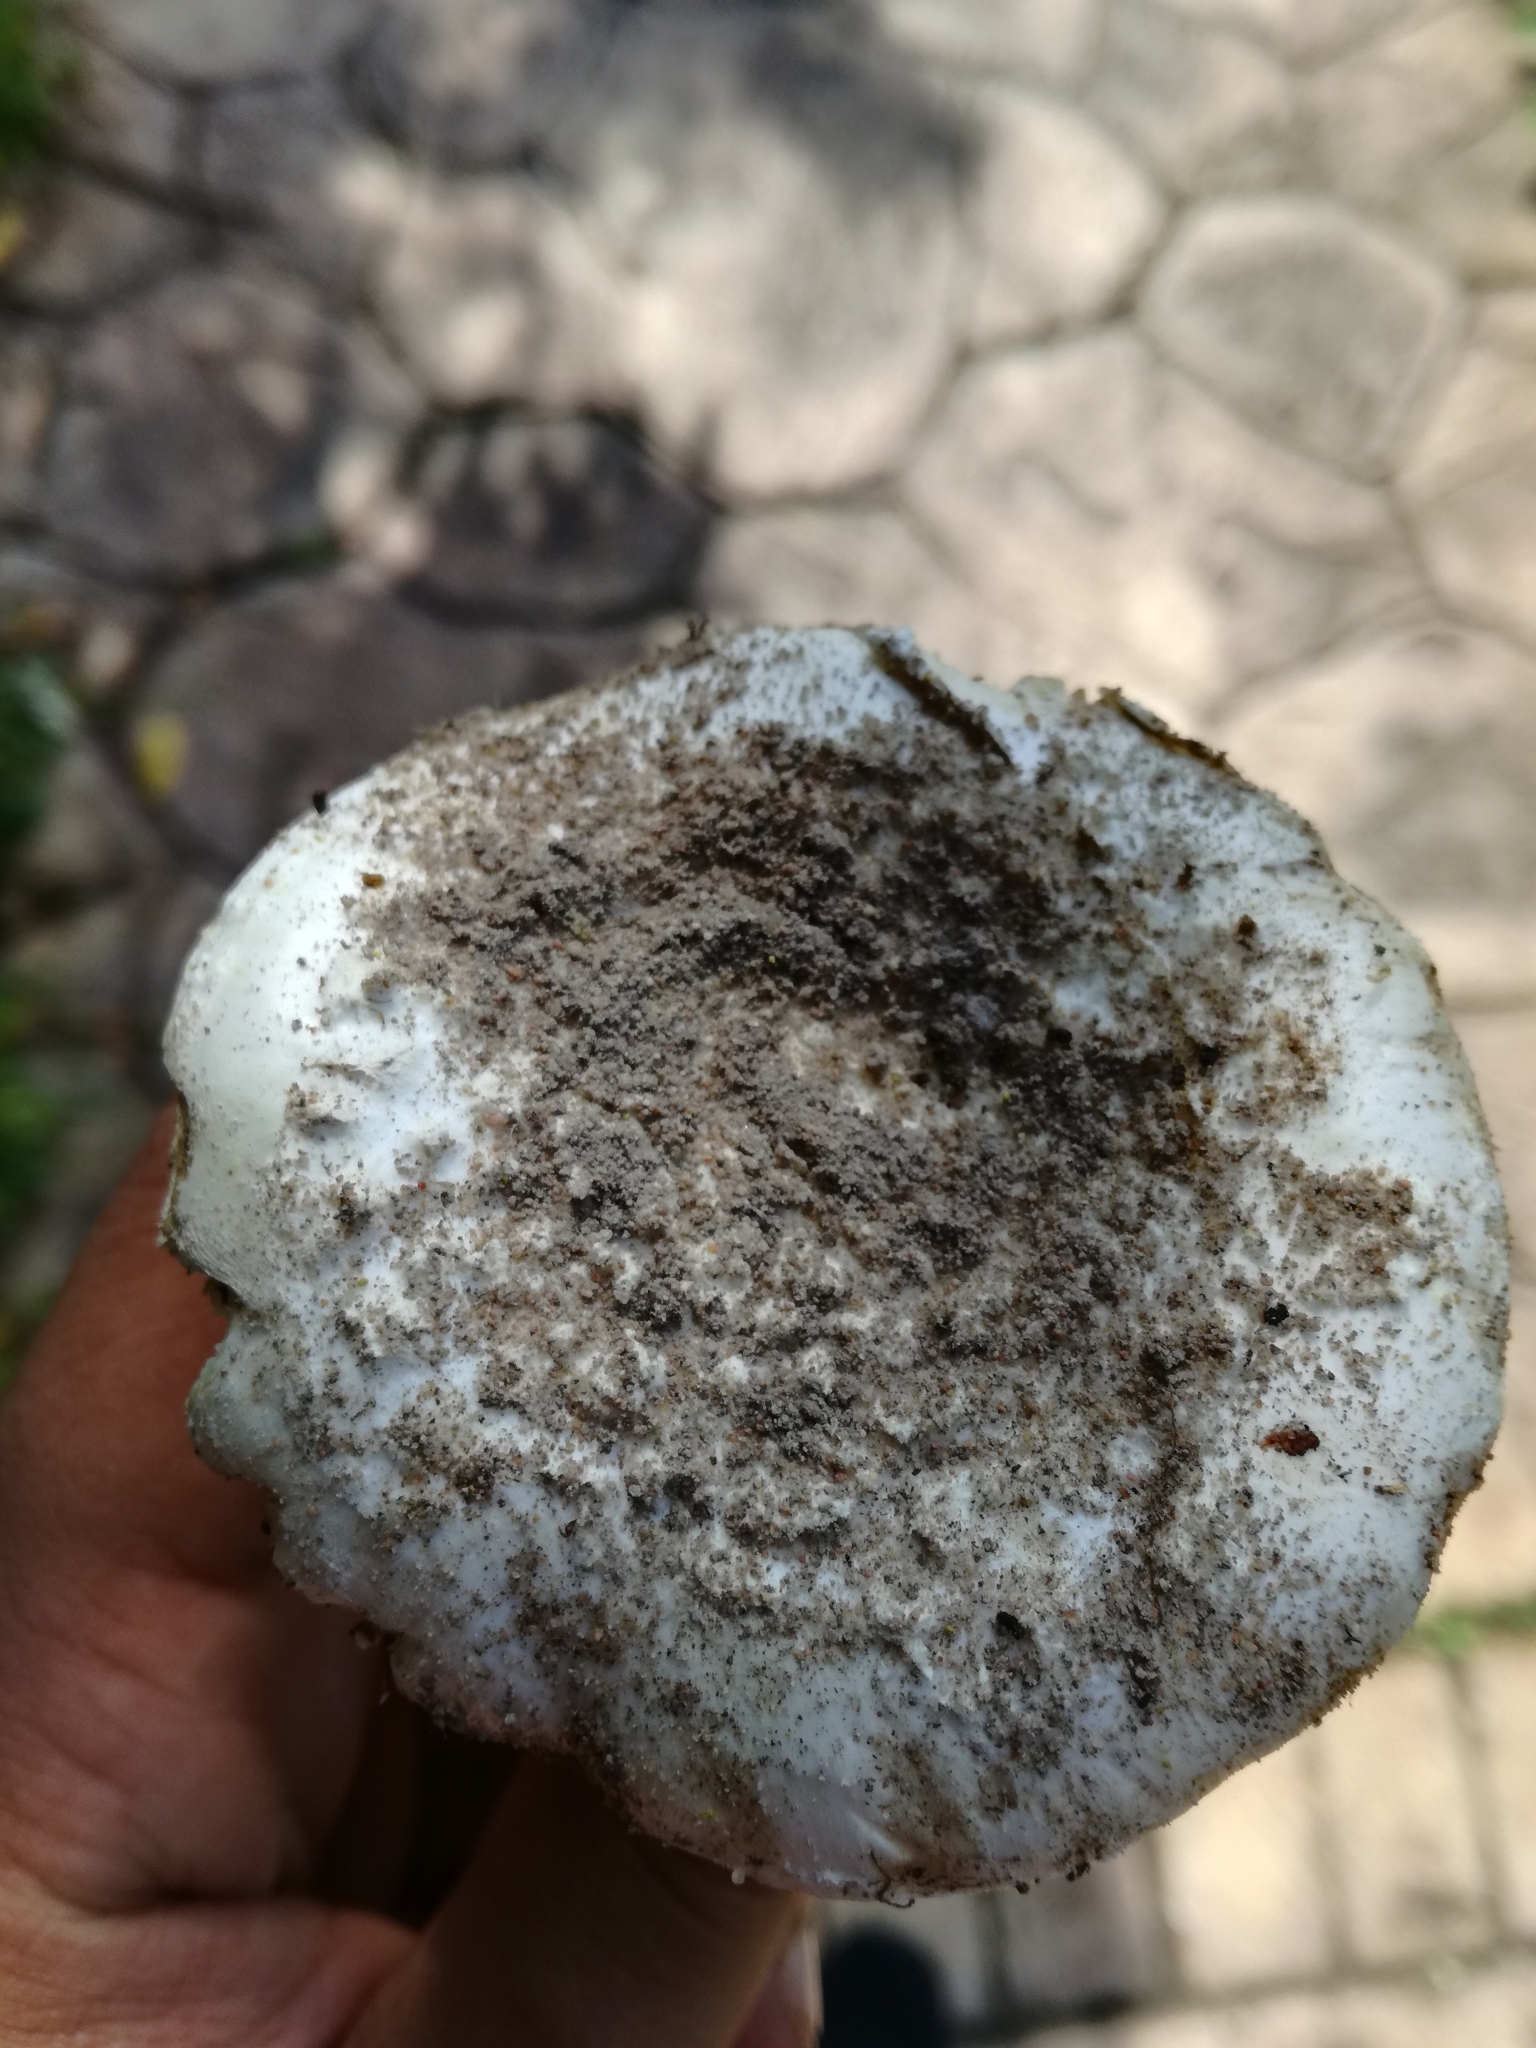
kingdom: Fungi
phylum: Basidiomycota
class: Agaricomycetes
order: Agaricales
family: Amanitaceae
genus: Amanita
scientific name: Amanita boudieri
